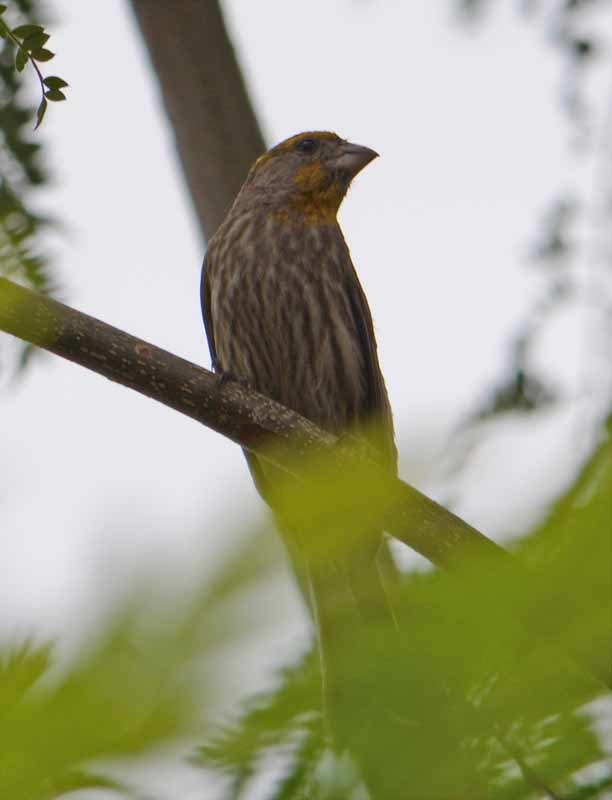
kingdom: Animalia
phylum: Chordata
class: Aves
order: Passeriformes
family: Fringillidae
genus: Haemorhous
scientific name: Haemorhous mexicanus
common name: House finch
